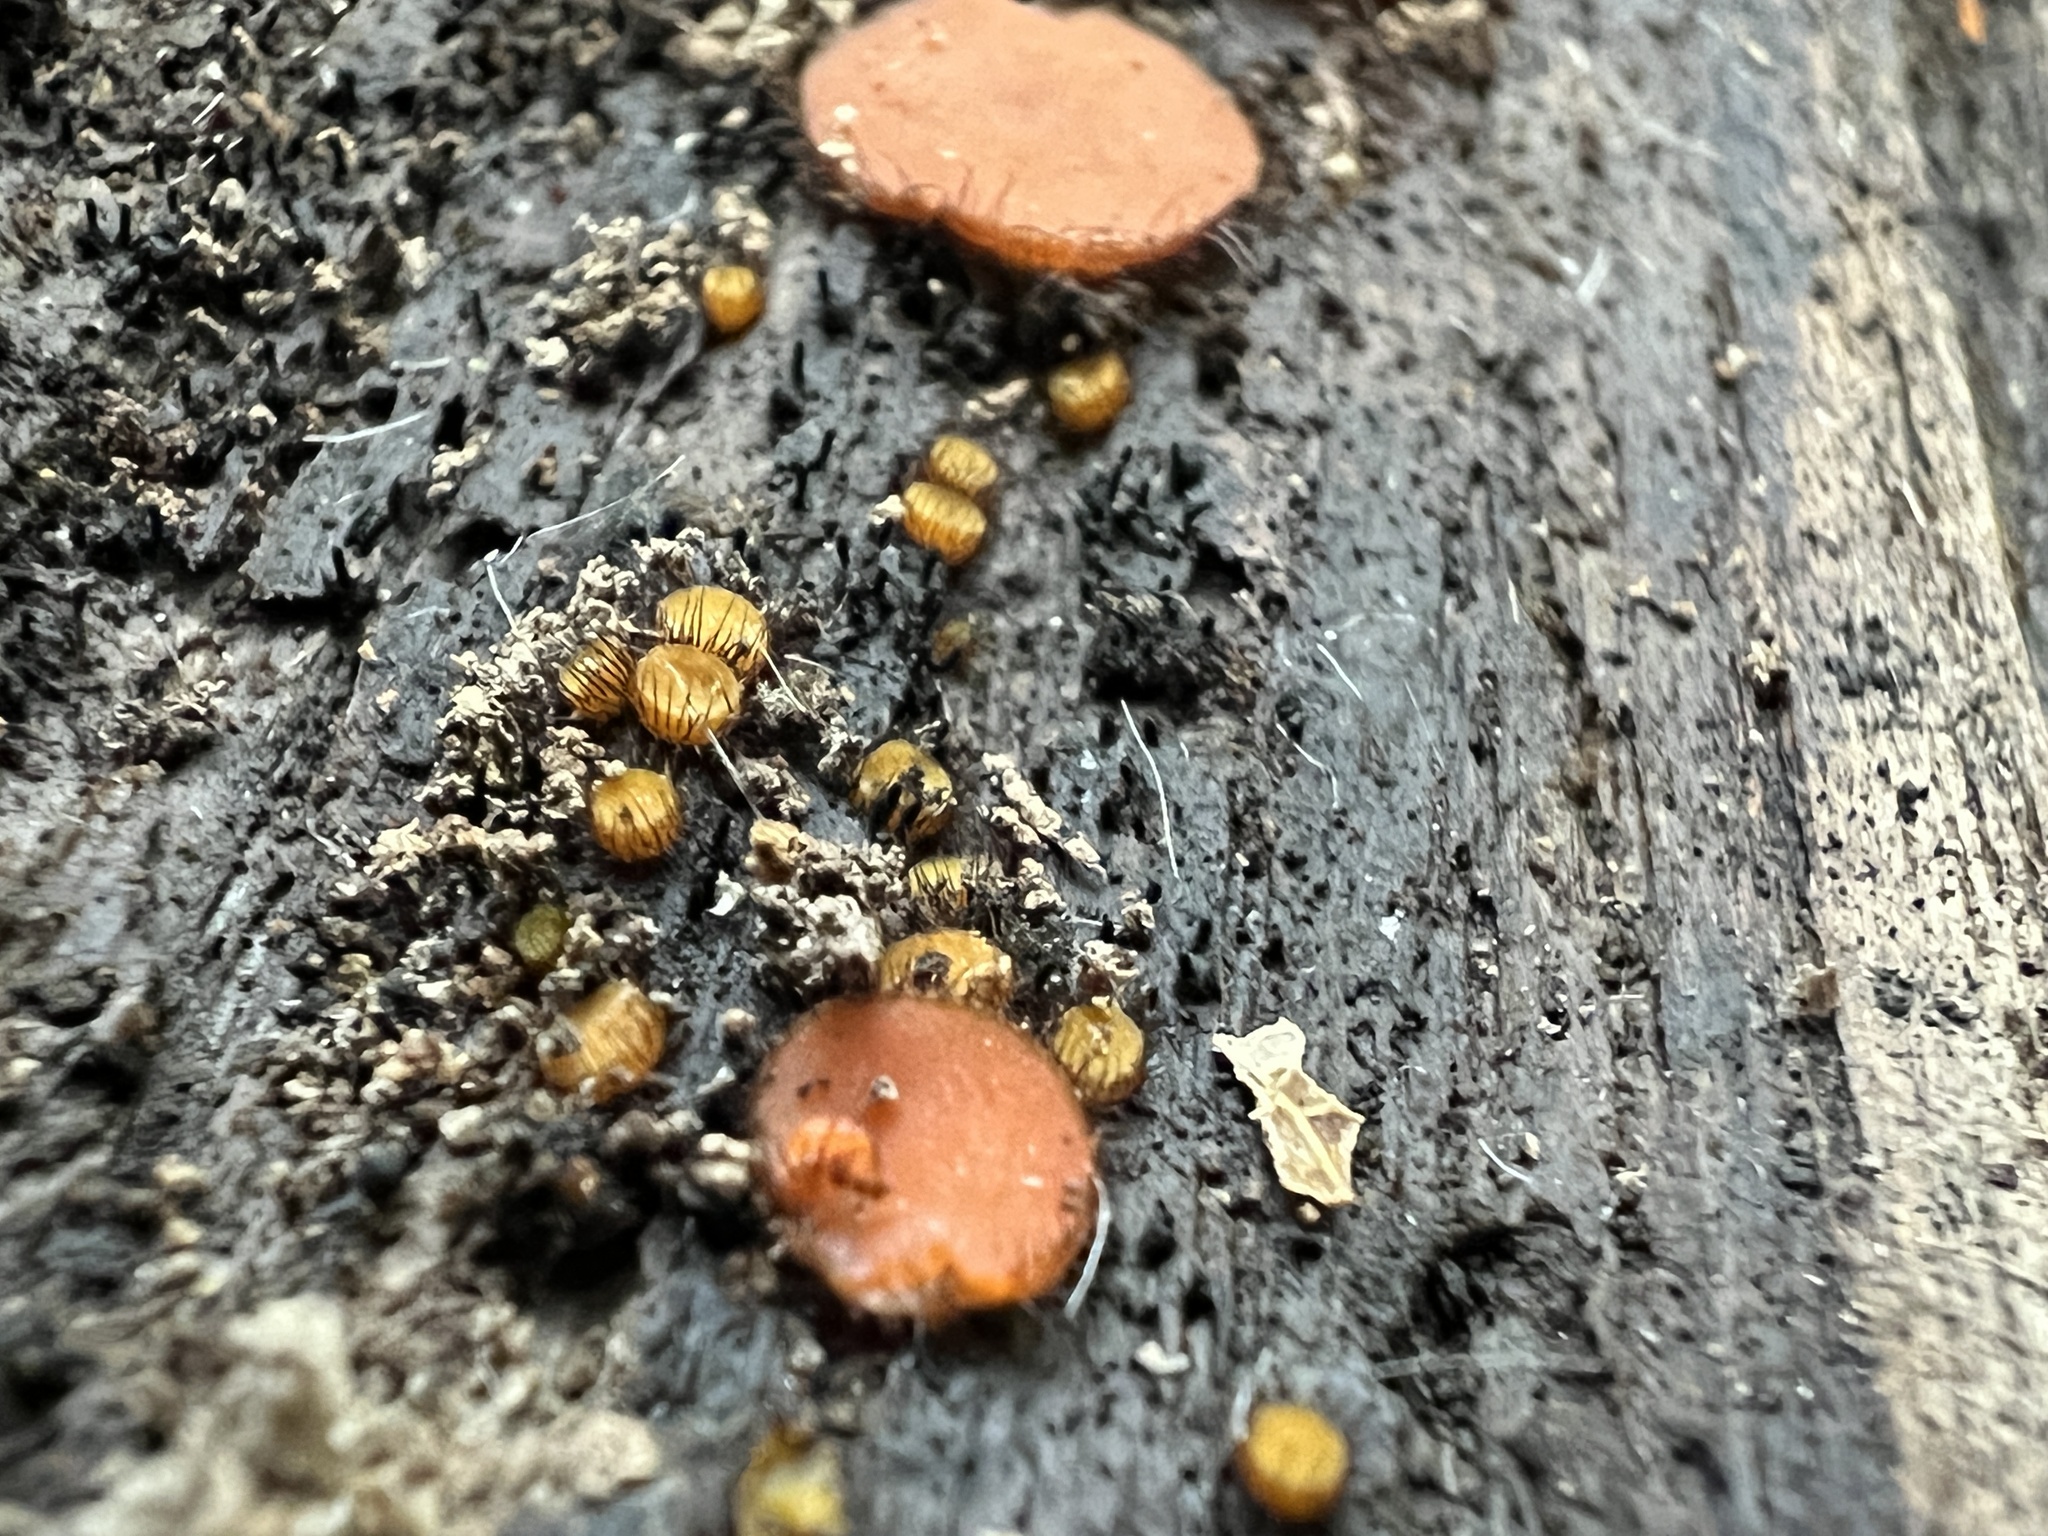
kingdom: Fungi
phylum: Ascomycota
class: Pezizomycetes
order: Pezizales
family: Pyronemataceae
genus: Scutellinia
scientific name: Scutellinia erinaceus
